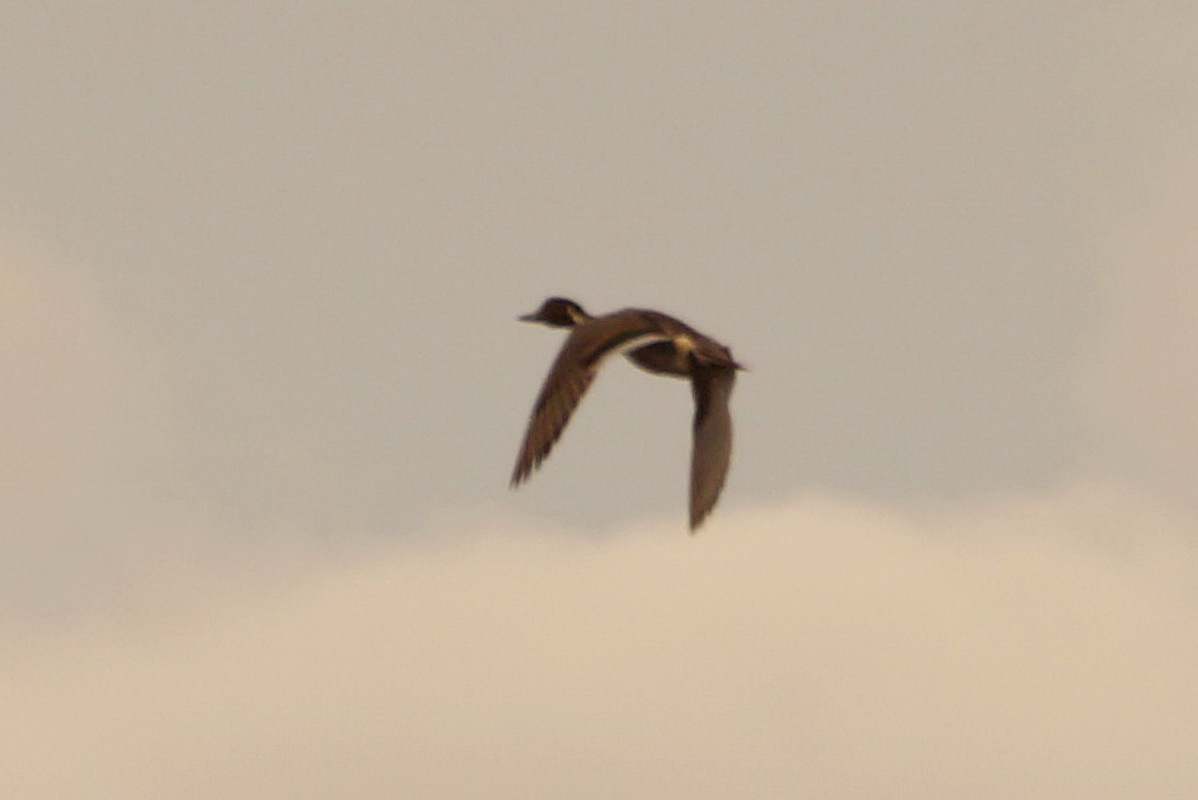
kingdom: Animalia
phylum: Chordata
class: Aves
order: Anseriformes
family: Anatidae
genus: Anas
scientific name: Anas acuta
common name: Northern pintail
